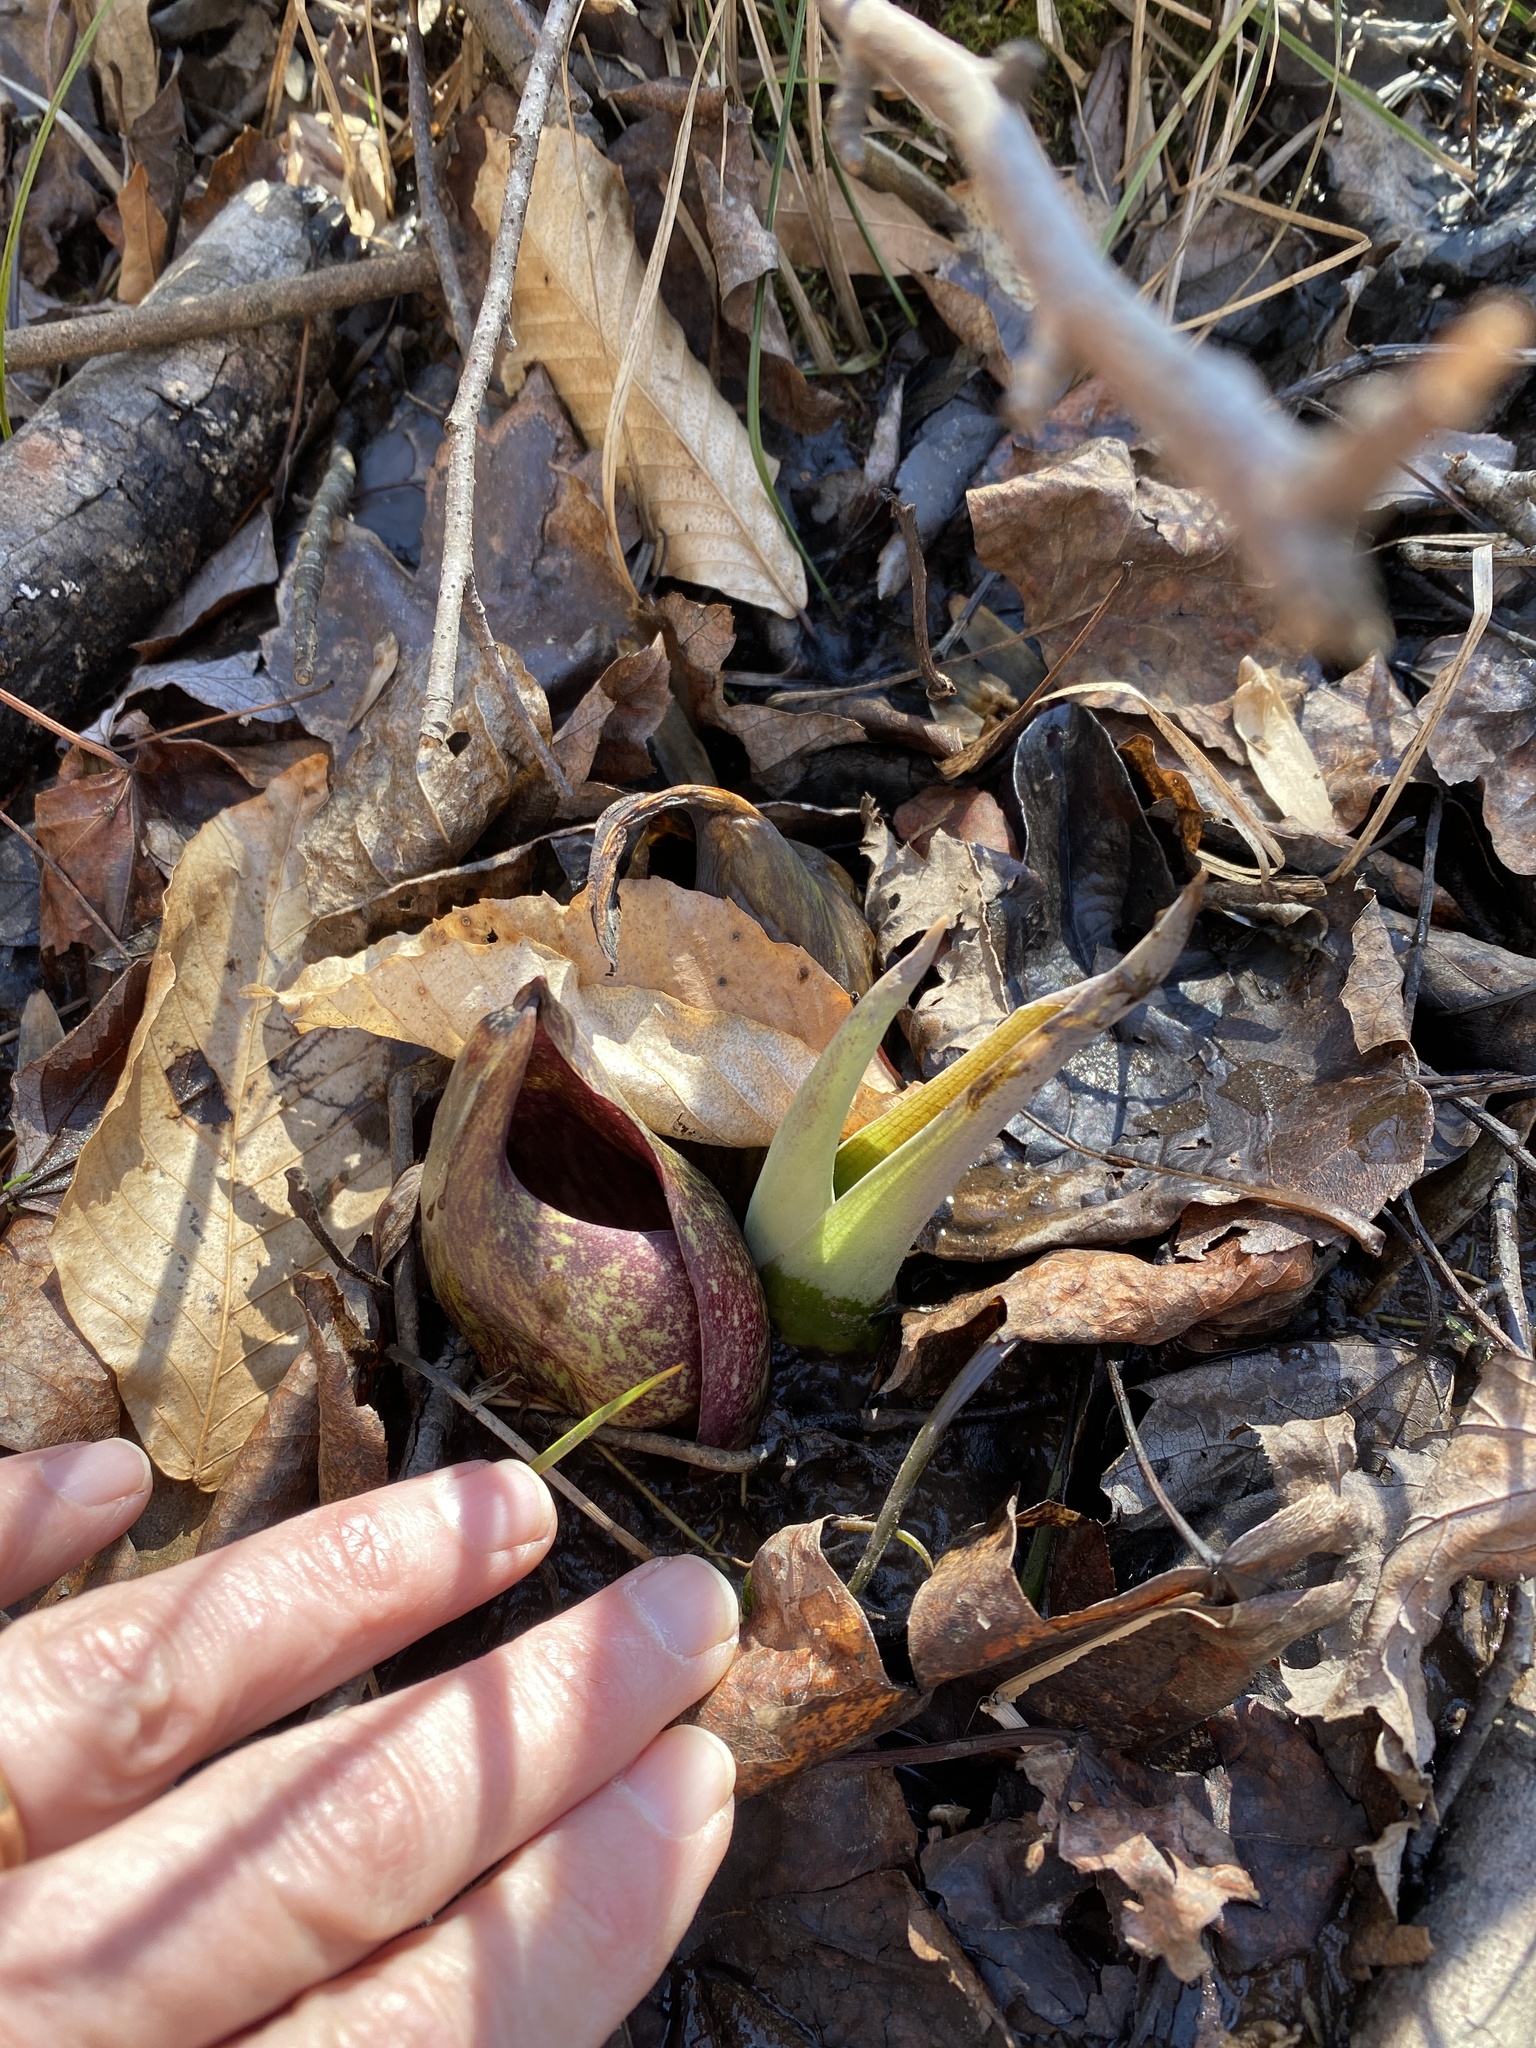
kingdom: Plantae
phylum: Tracheophyta
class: Liliopsida
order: Alismatales
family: Araceae
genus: Symplocarpus
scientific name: Symplocarpus foetidus
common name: Eastern skunk cabbage
